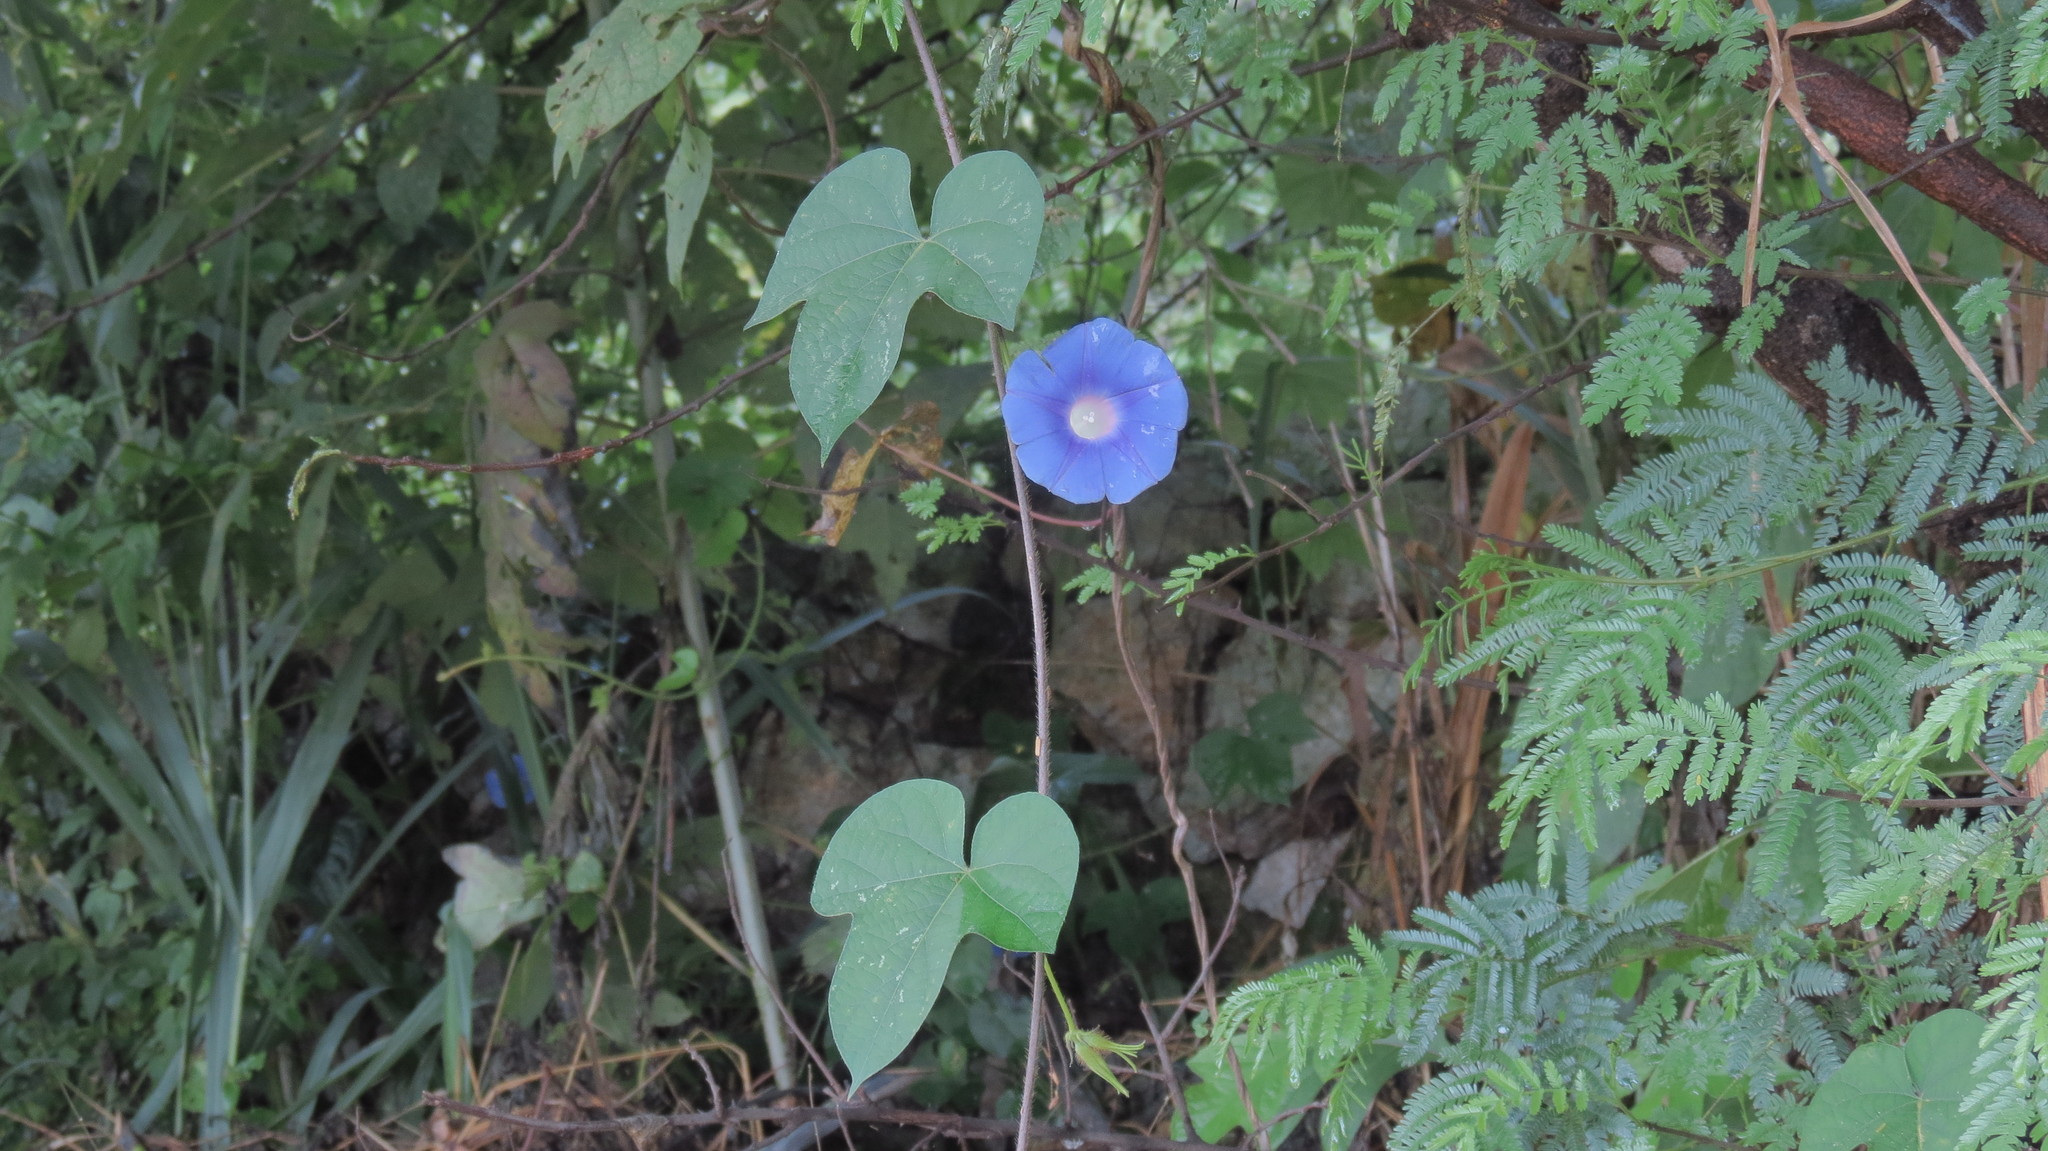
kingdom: Plantae
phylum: Tracheophyta
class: Magnoliopsida
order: Solanales
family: Convolvulaceae
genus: Ipomoea
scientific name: Ipomoea nil
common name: Japanese morning-glory
